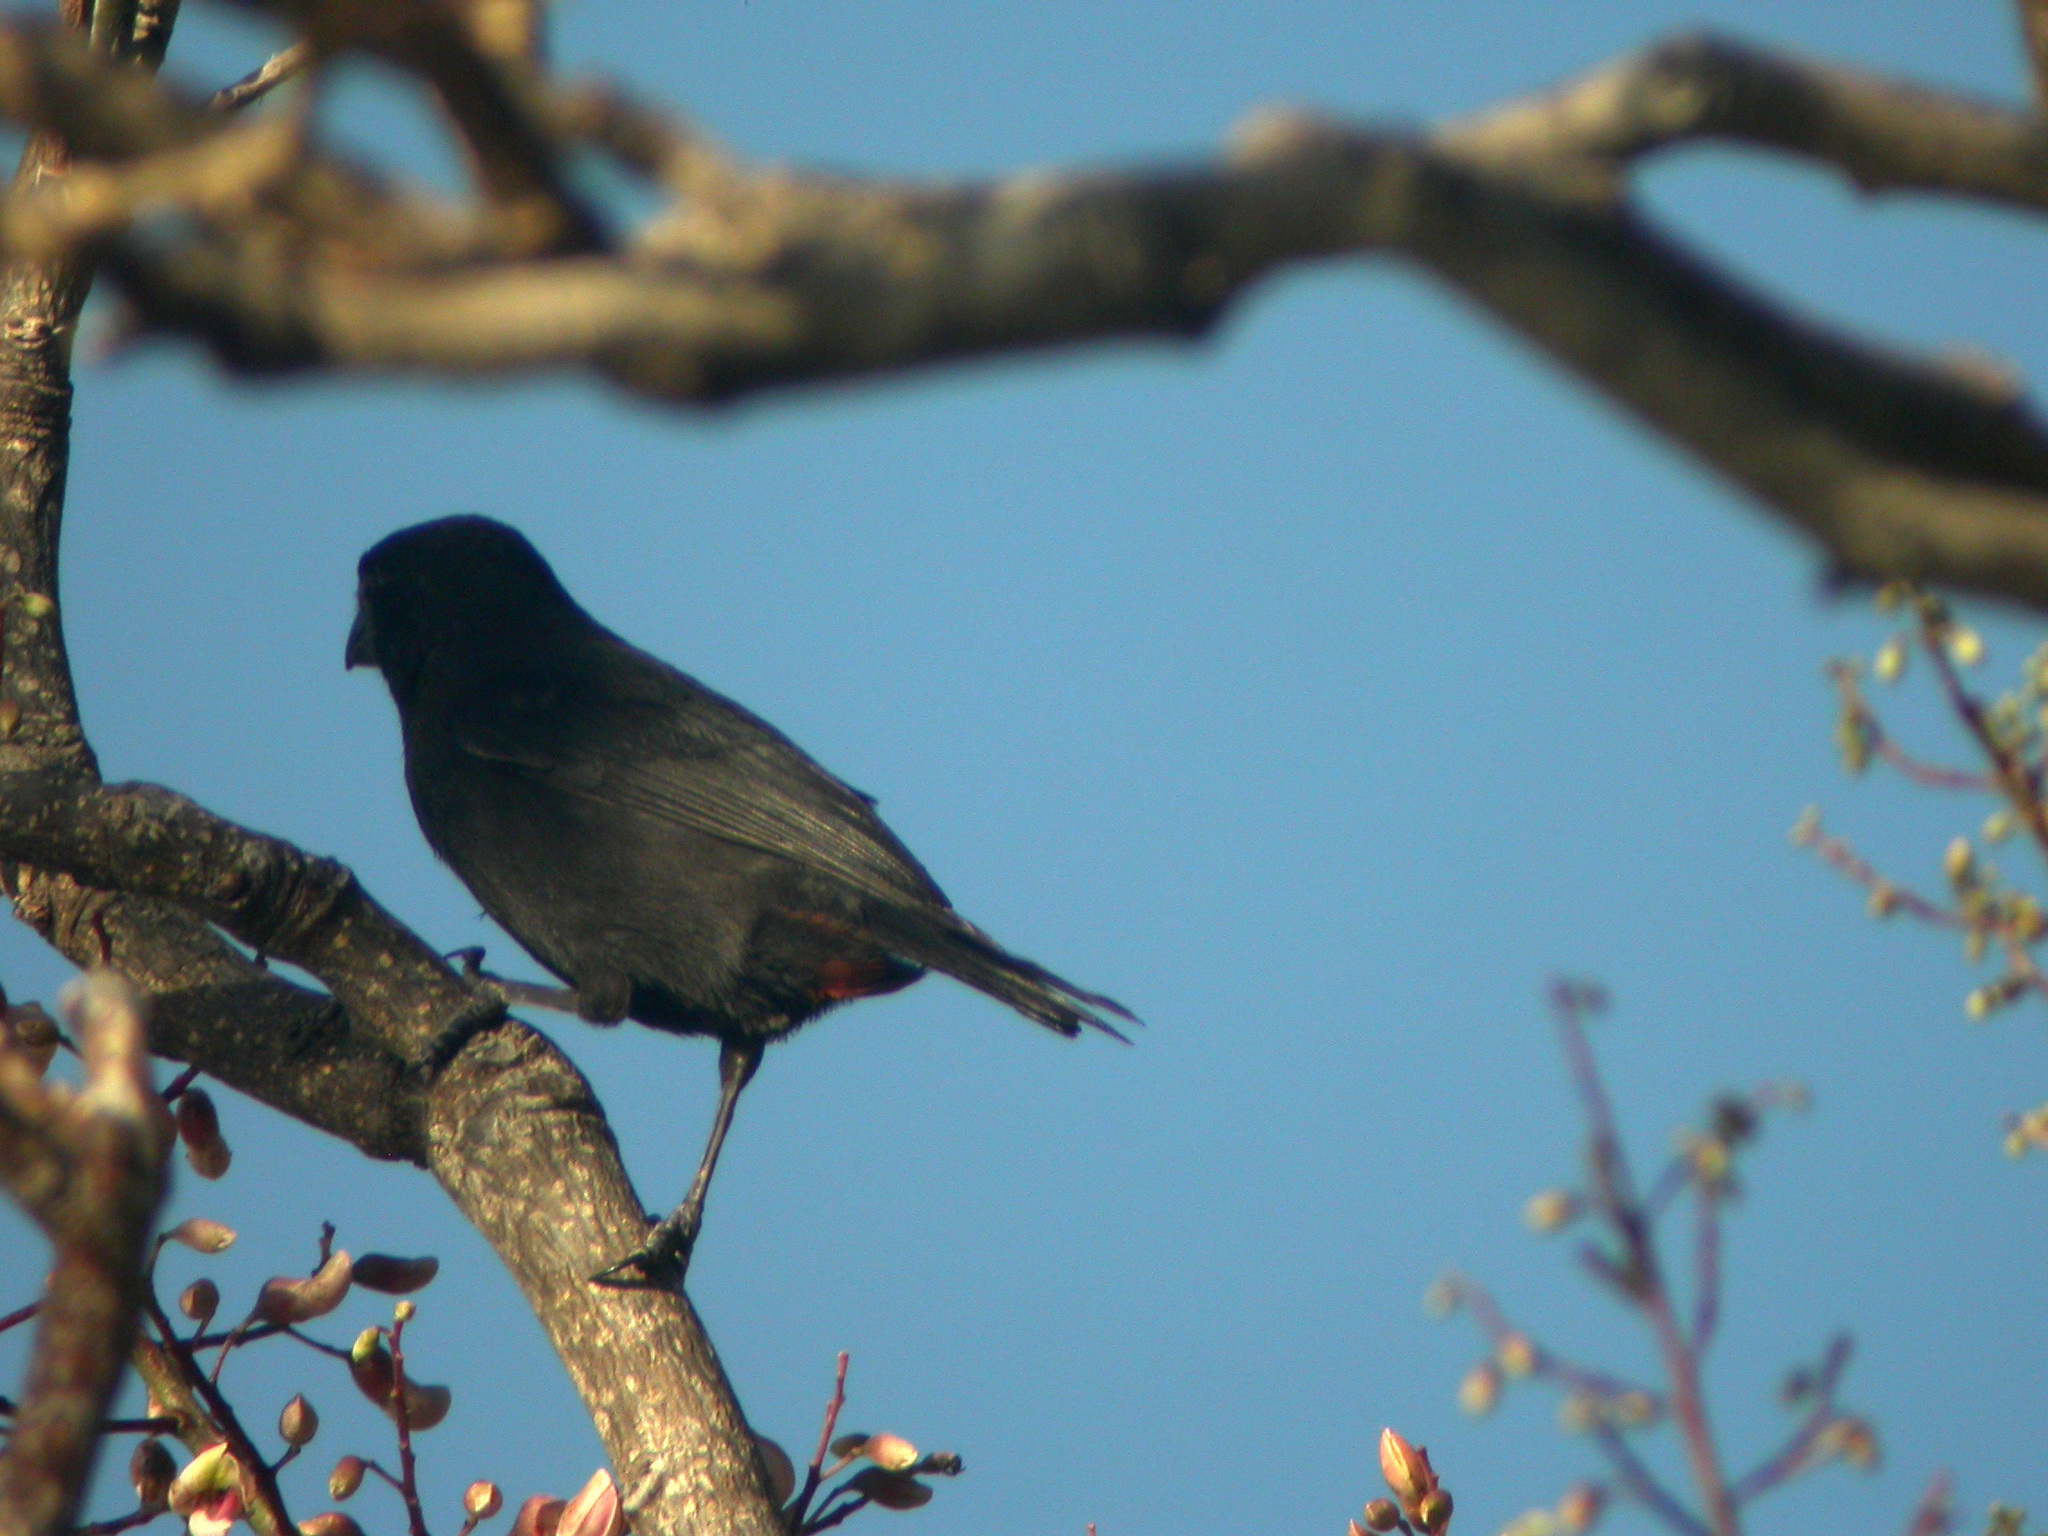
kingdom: Animalia
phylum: Chordata
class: Aves
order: Passeriformes
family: Thraupidae
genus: Loxigilla
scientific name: Loxigilla noctis
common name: Lesser antillean bullfinch
